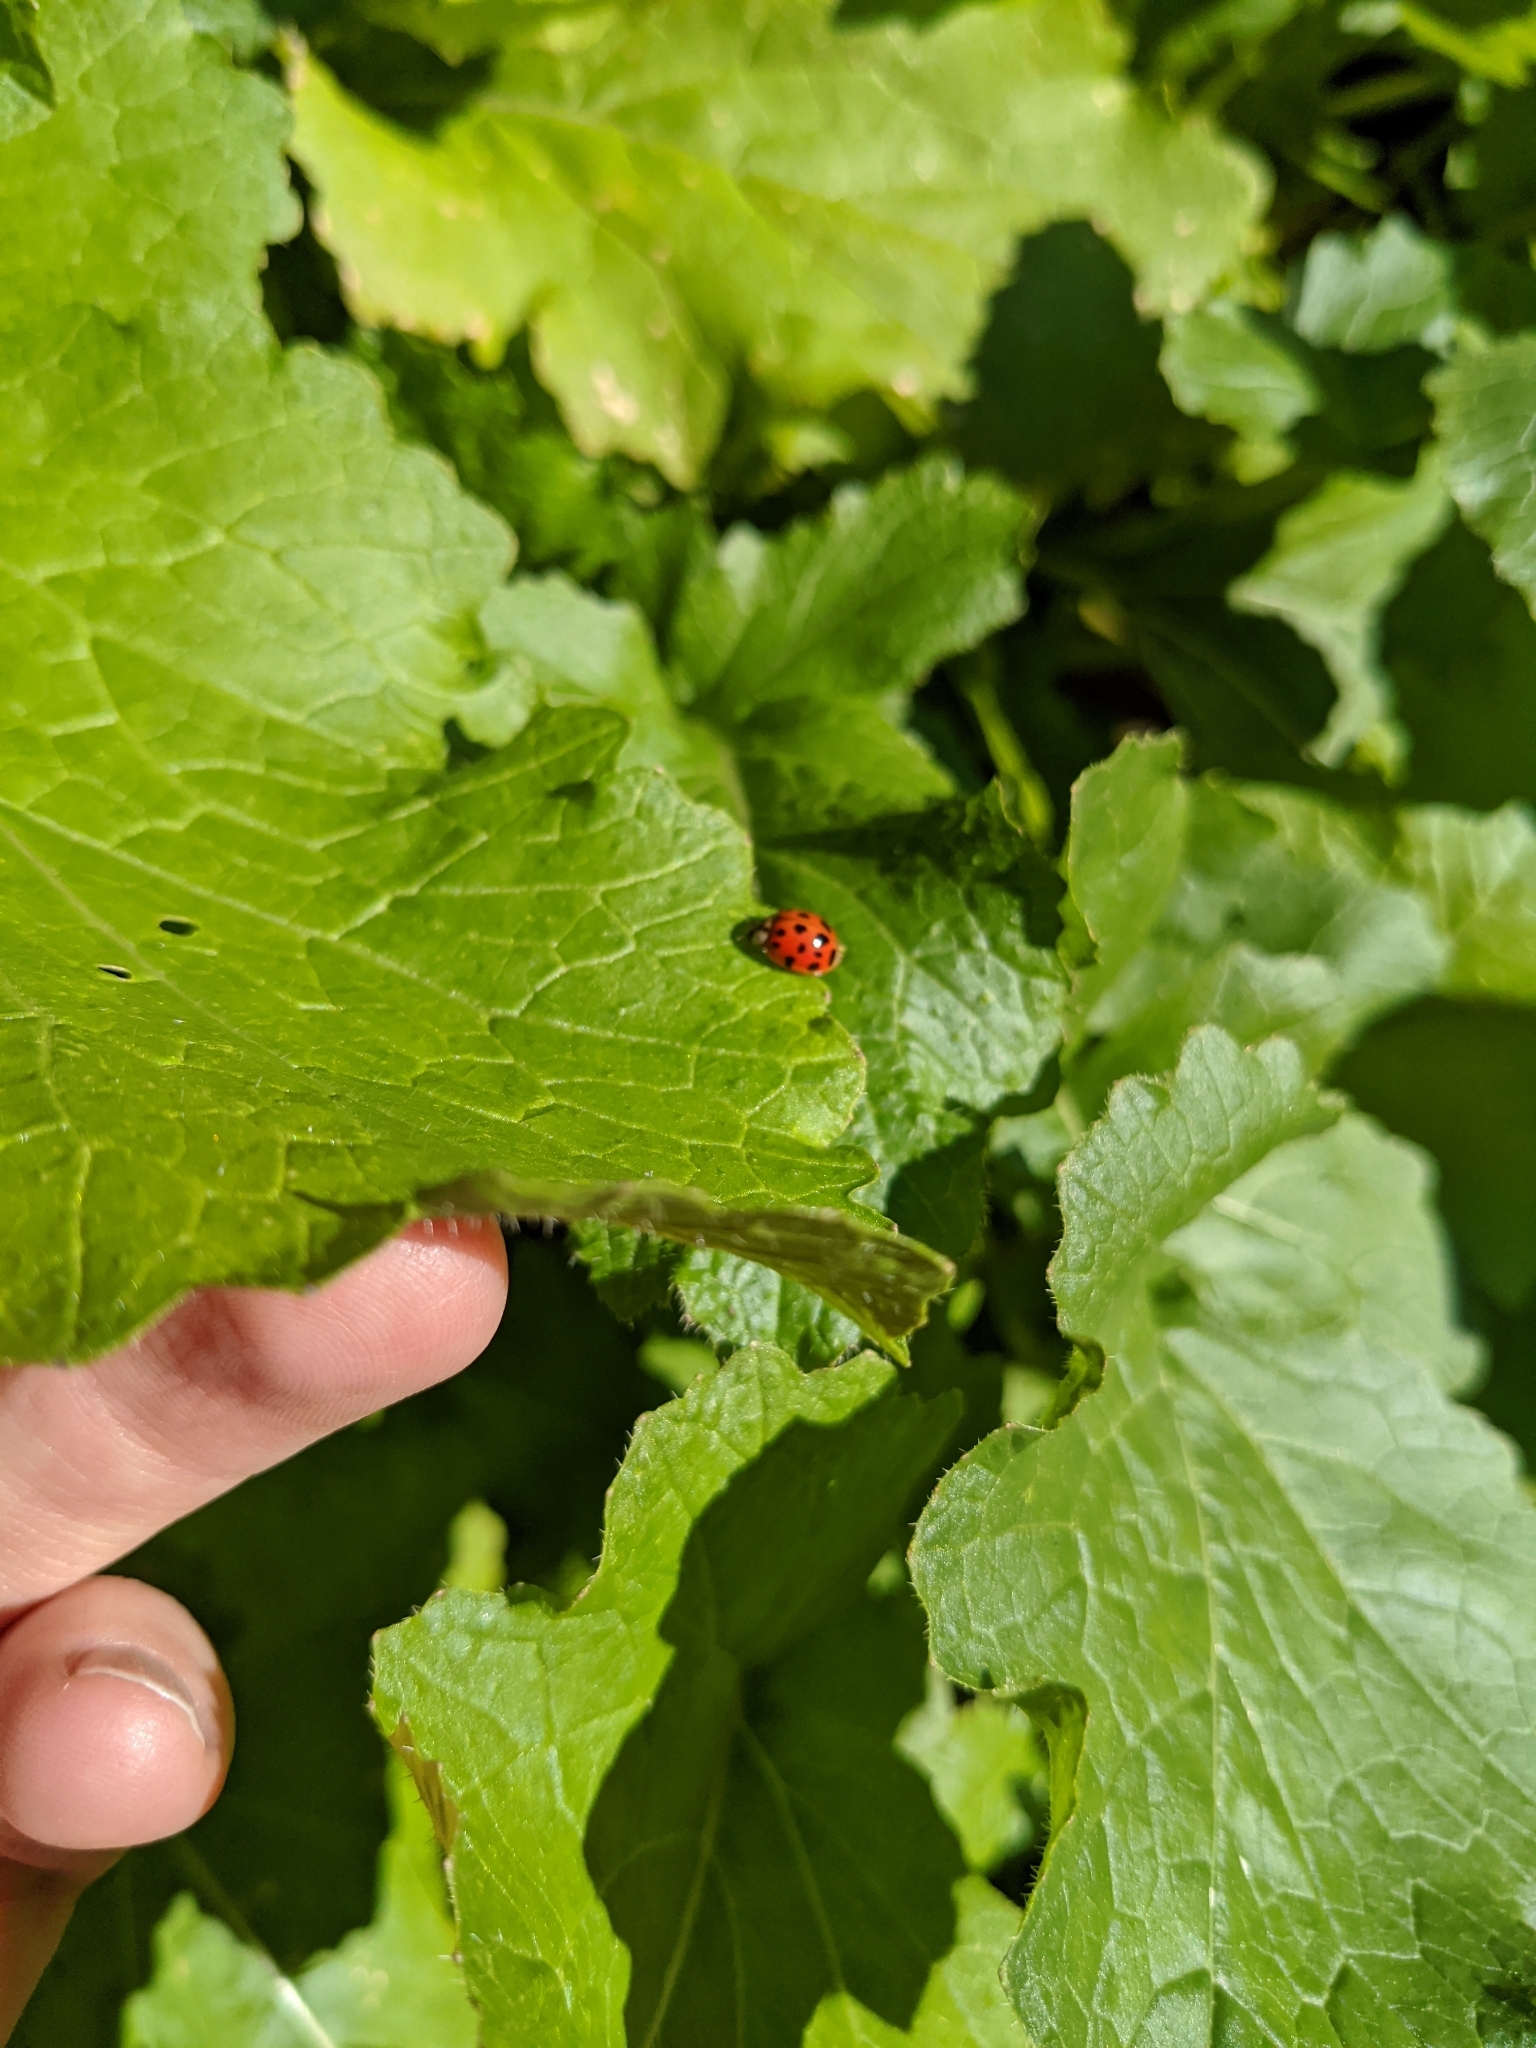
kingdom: Animalia
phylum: Arthropoda
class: Insecta
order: Coleoptera
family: Coccinellidae
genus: Harmonia
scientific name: Harmonia axyridis
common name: Harlequin ladybird
